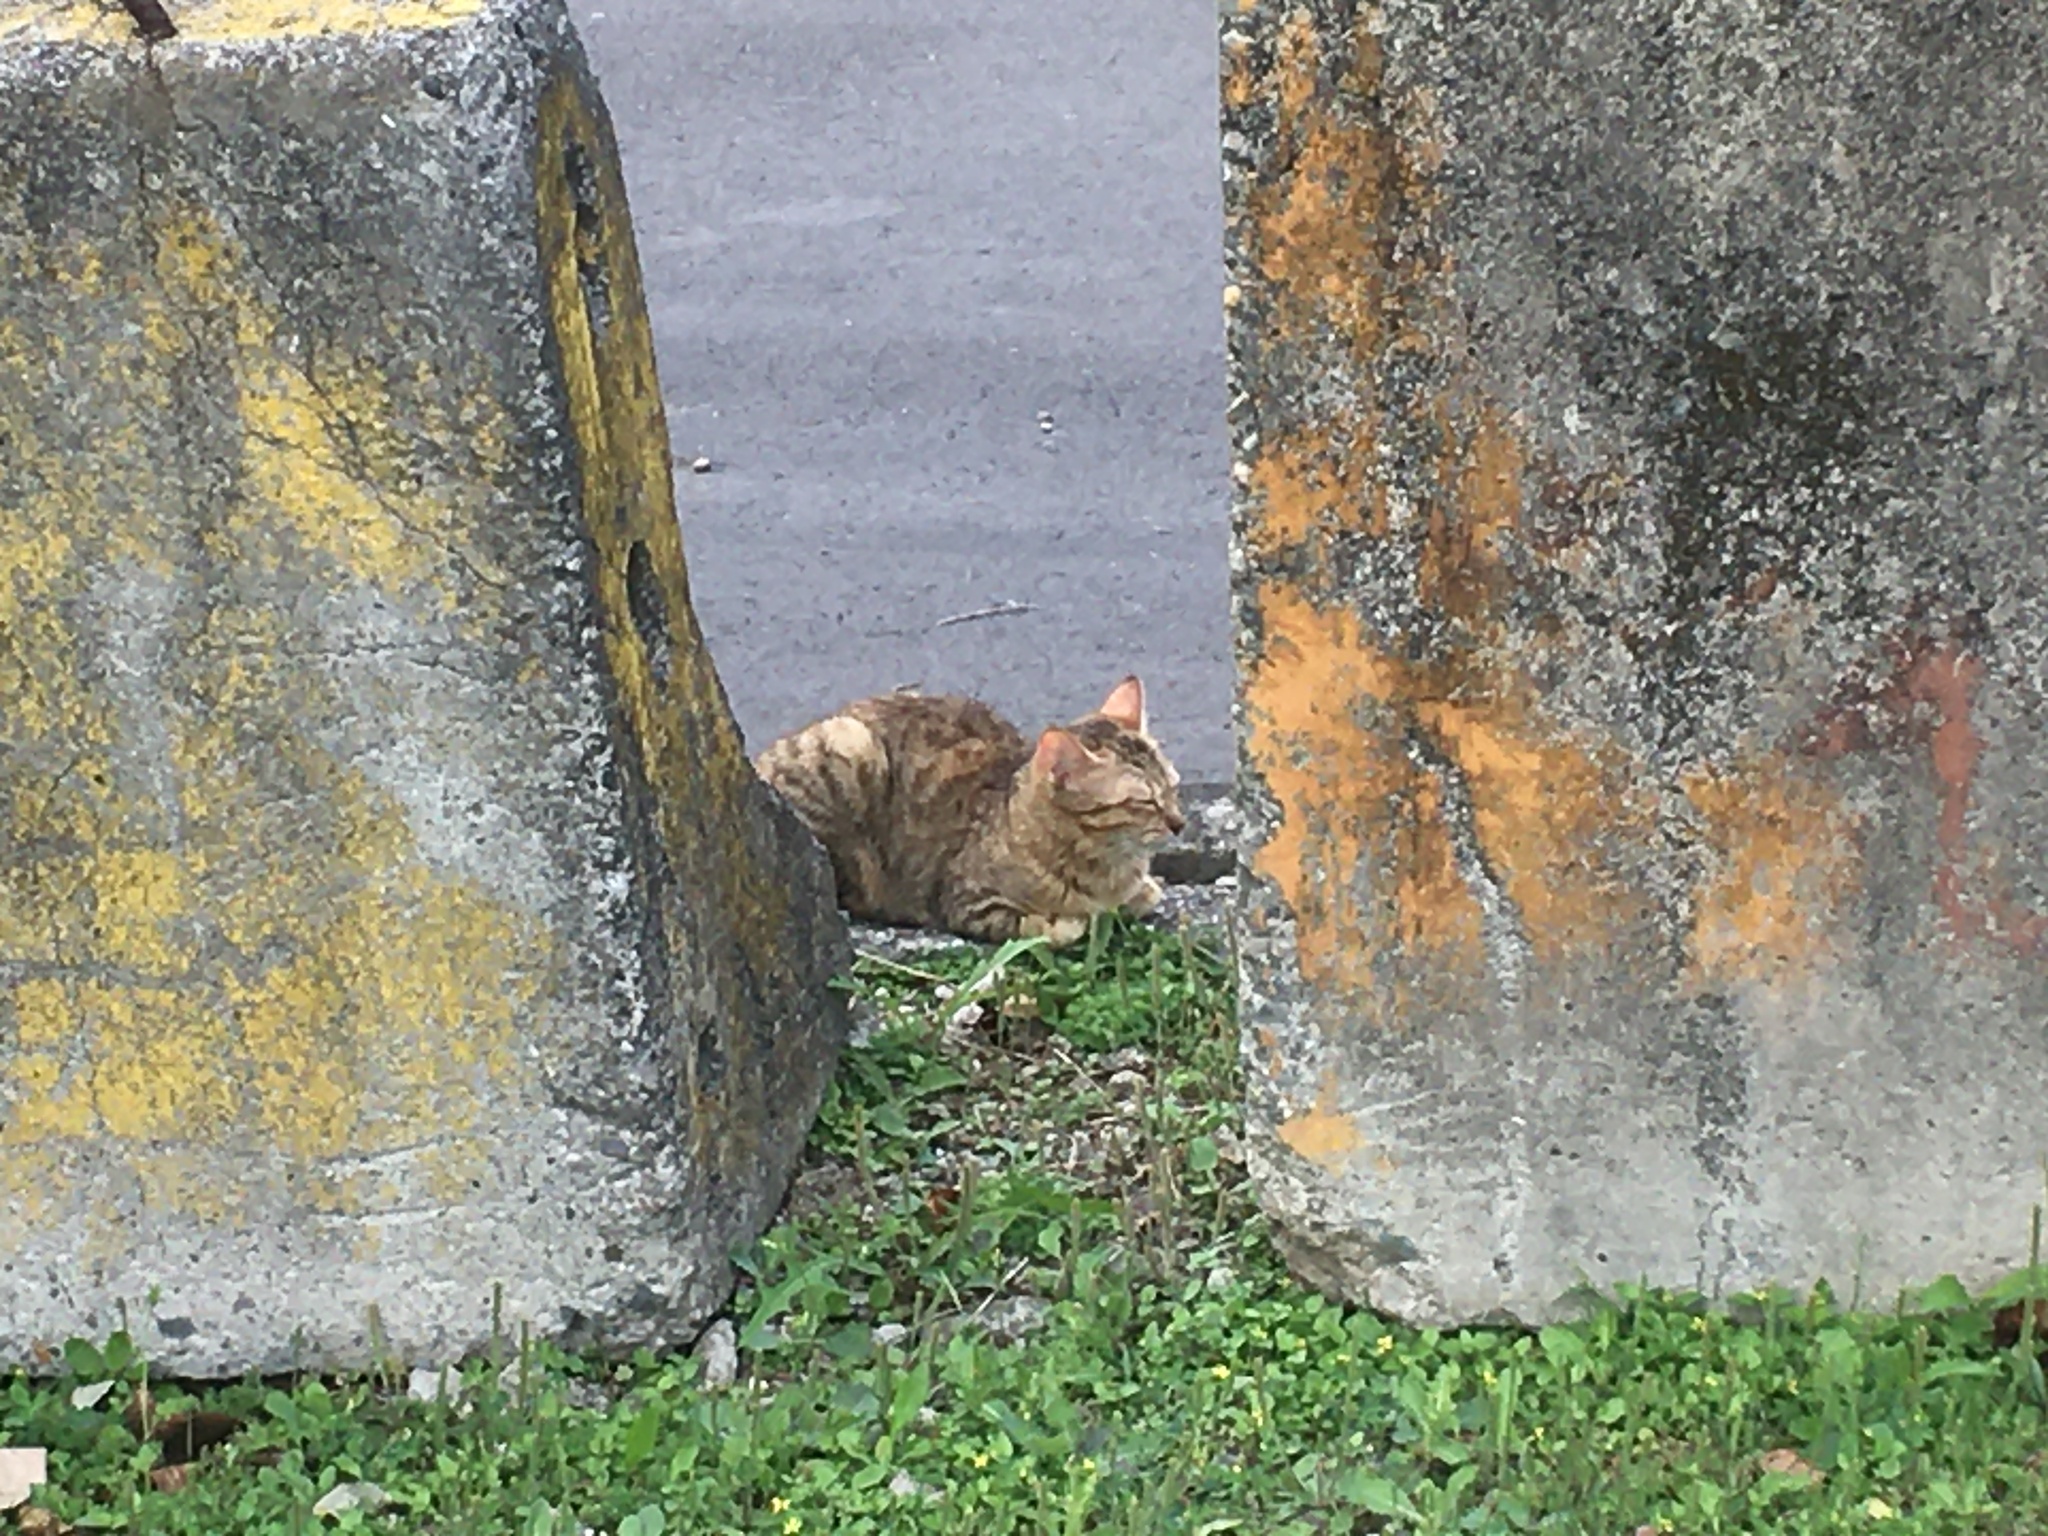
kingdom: Animalia
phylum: Chordata
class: Mammalia
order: Carnivora
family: Felidae
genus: Felis
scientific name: Felis catus
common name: Domestic cat
